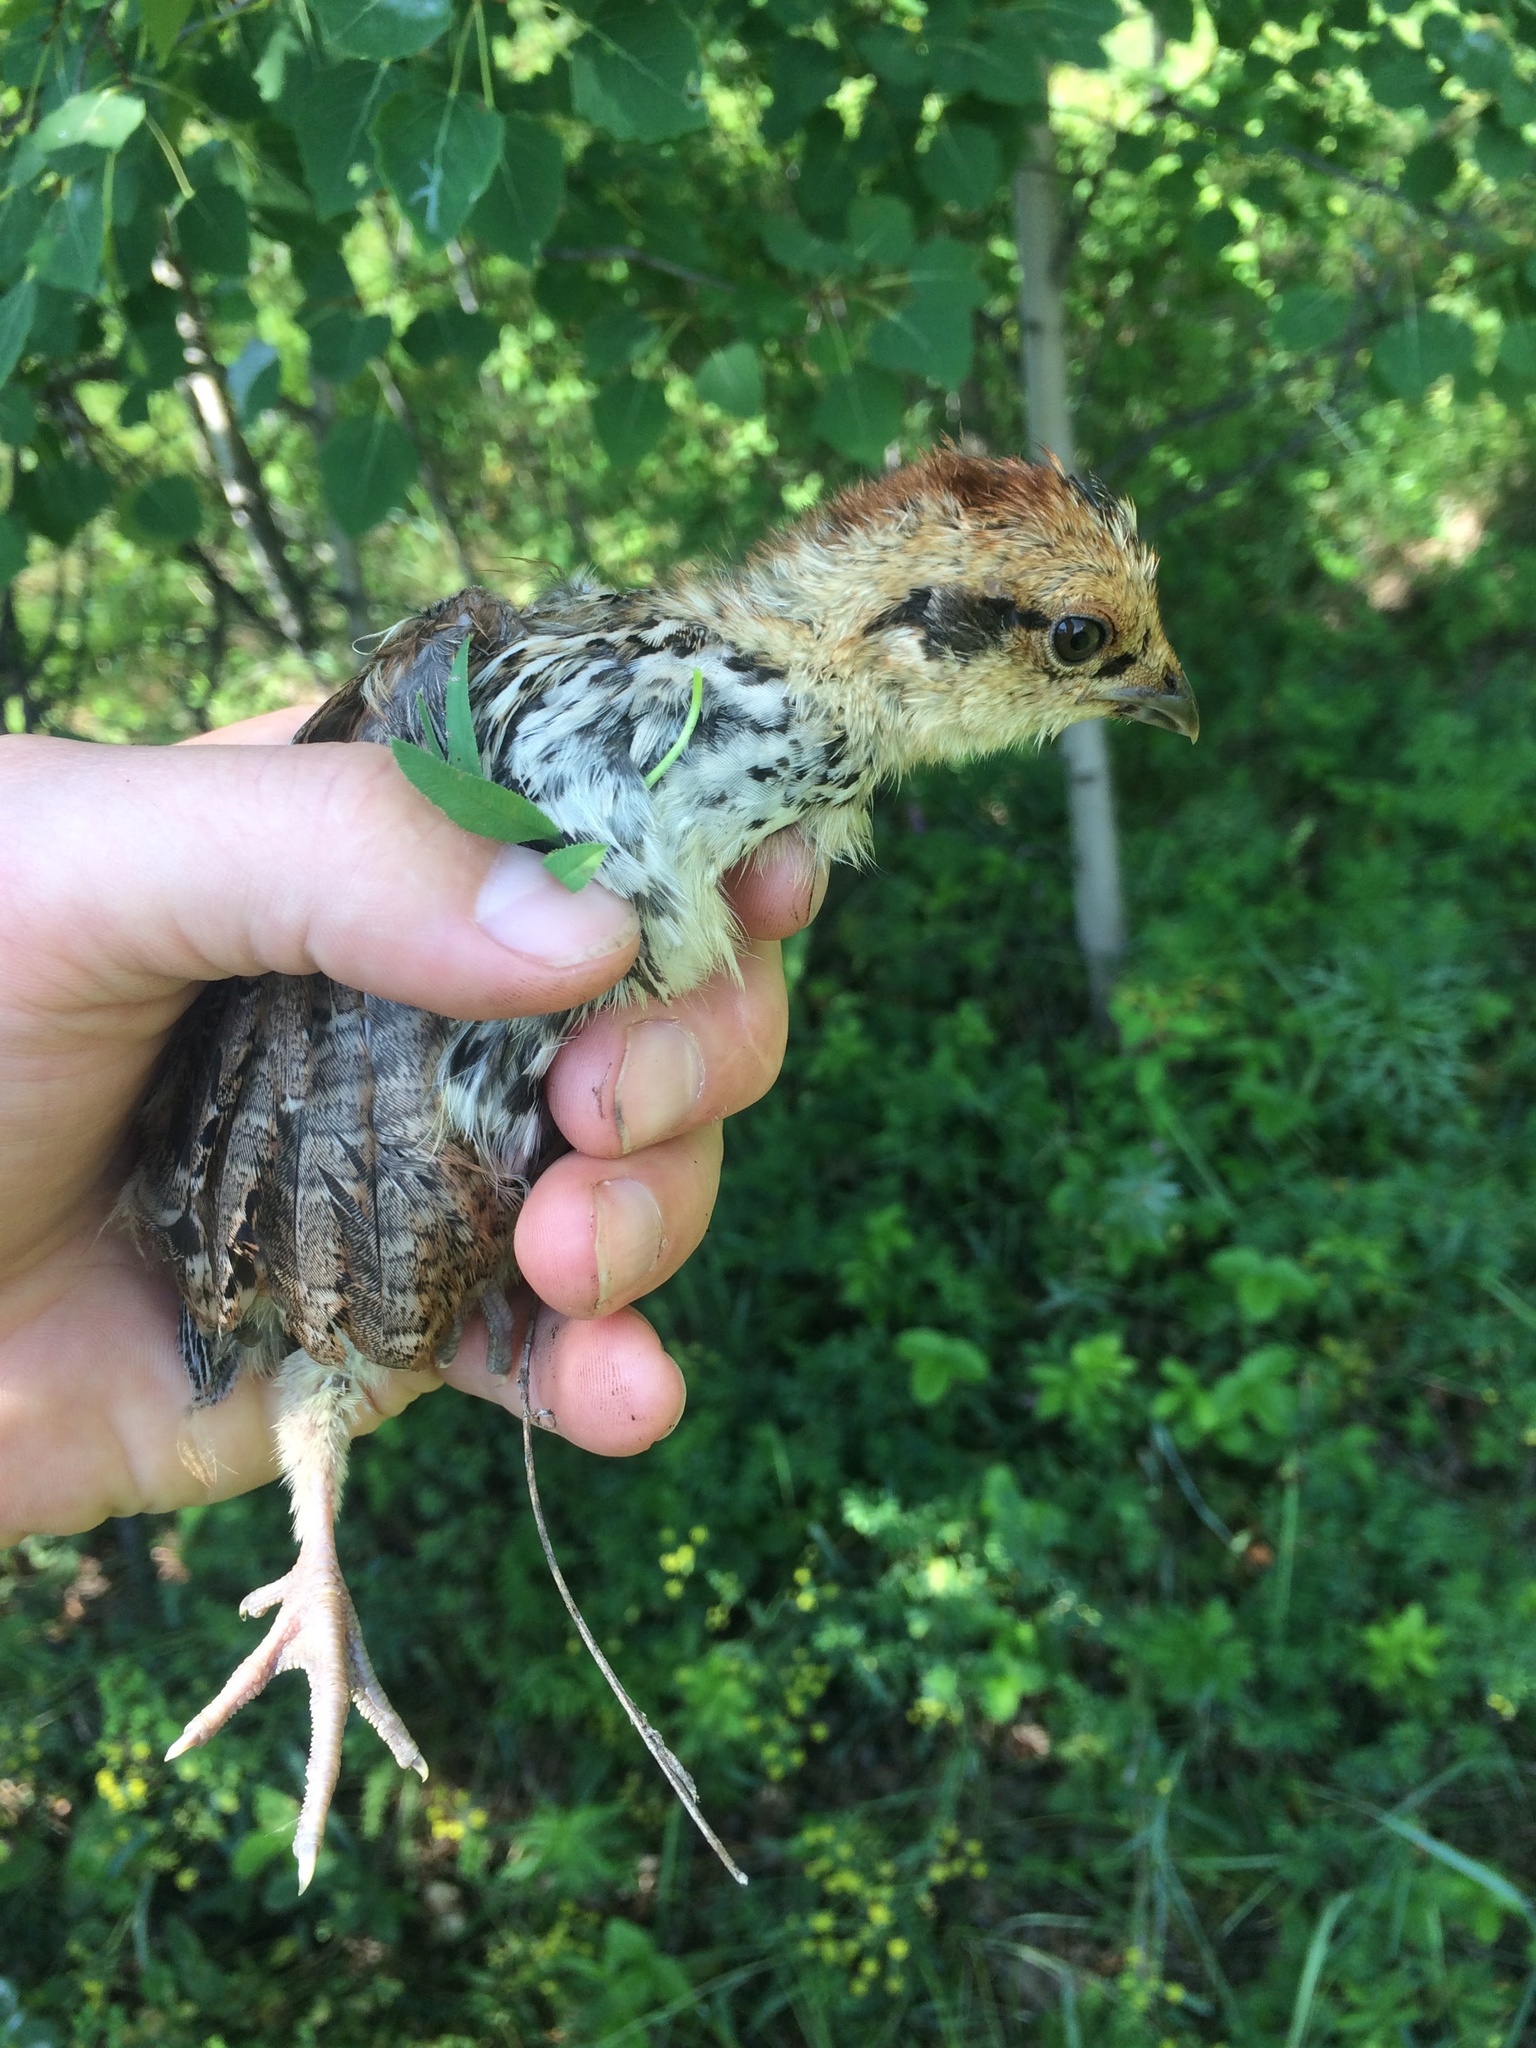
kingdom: Animalia
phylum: Chordata
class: Aves
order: Galliformes
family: Phasianidae
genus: Tetrastes
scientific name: Tetrastes bonasia
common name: Hazel grouse
